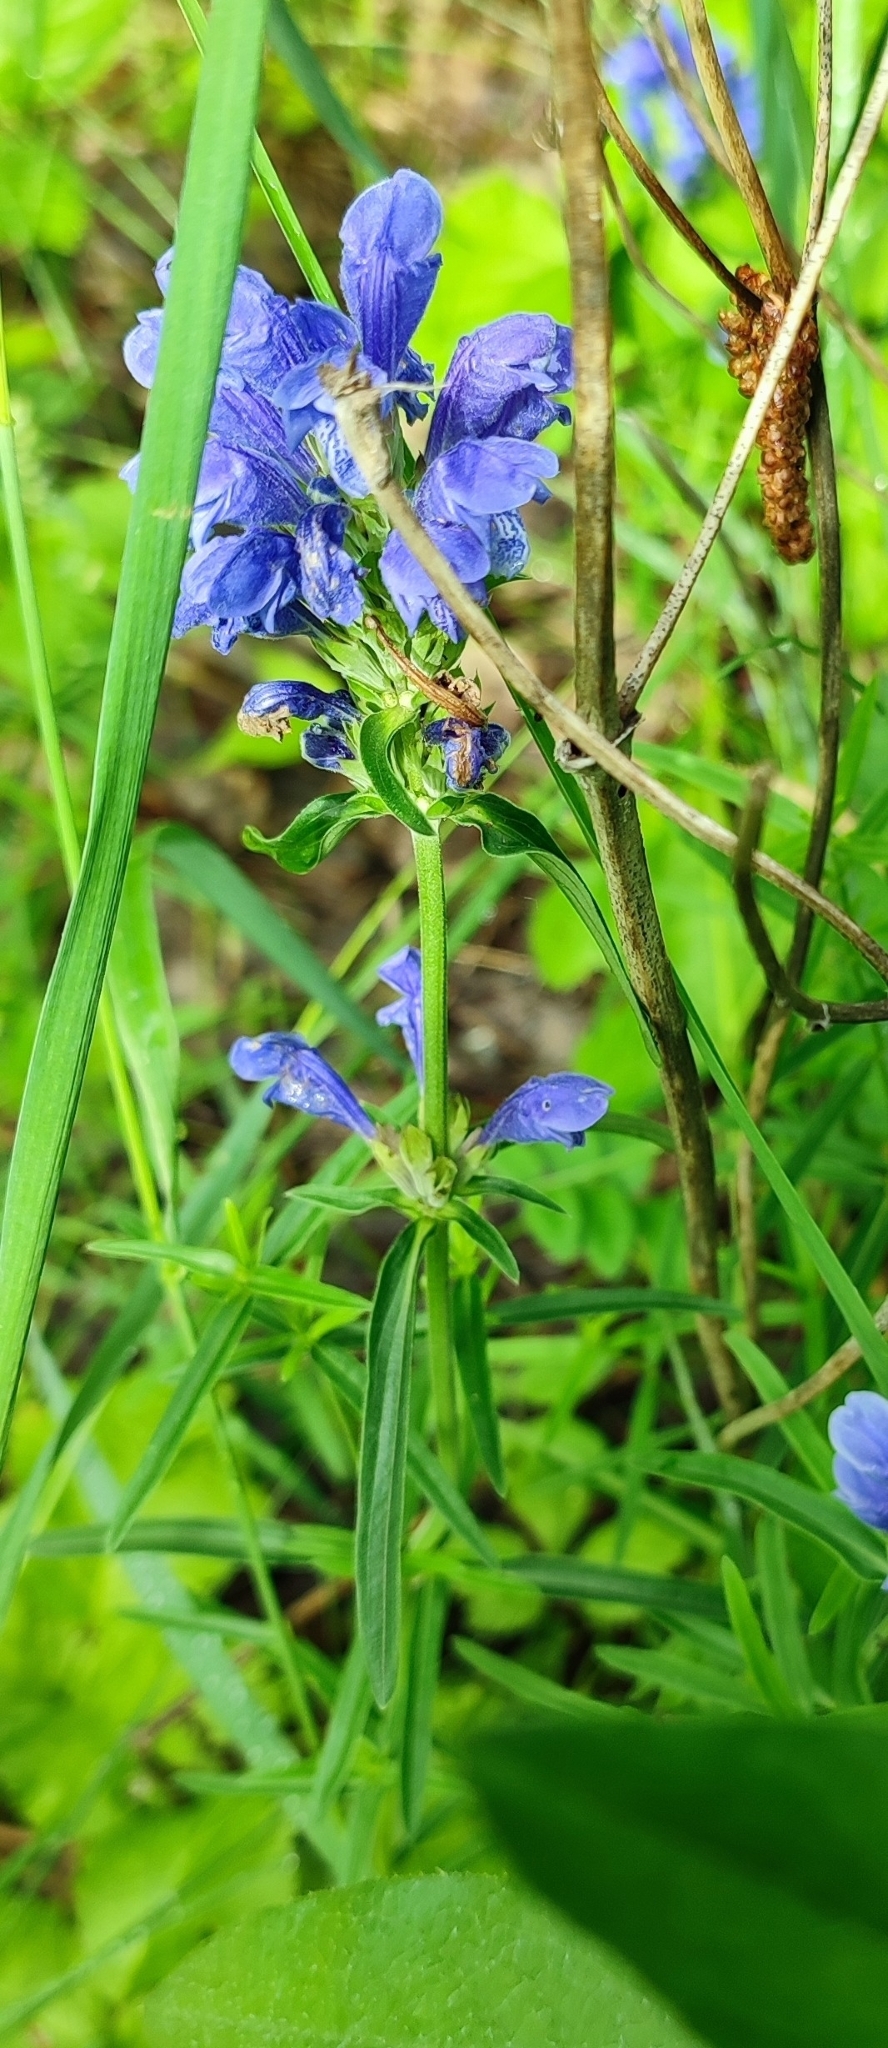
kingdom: Plantae
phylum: Tracheophyta
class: Magnoliopsida
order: Lamiales
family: Lamiaceae
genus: Dracocephalum
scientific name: Dracocephalum ruyschiana
